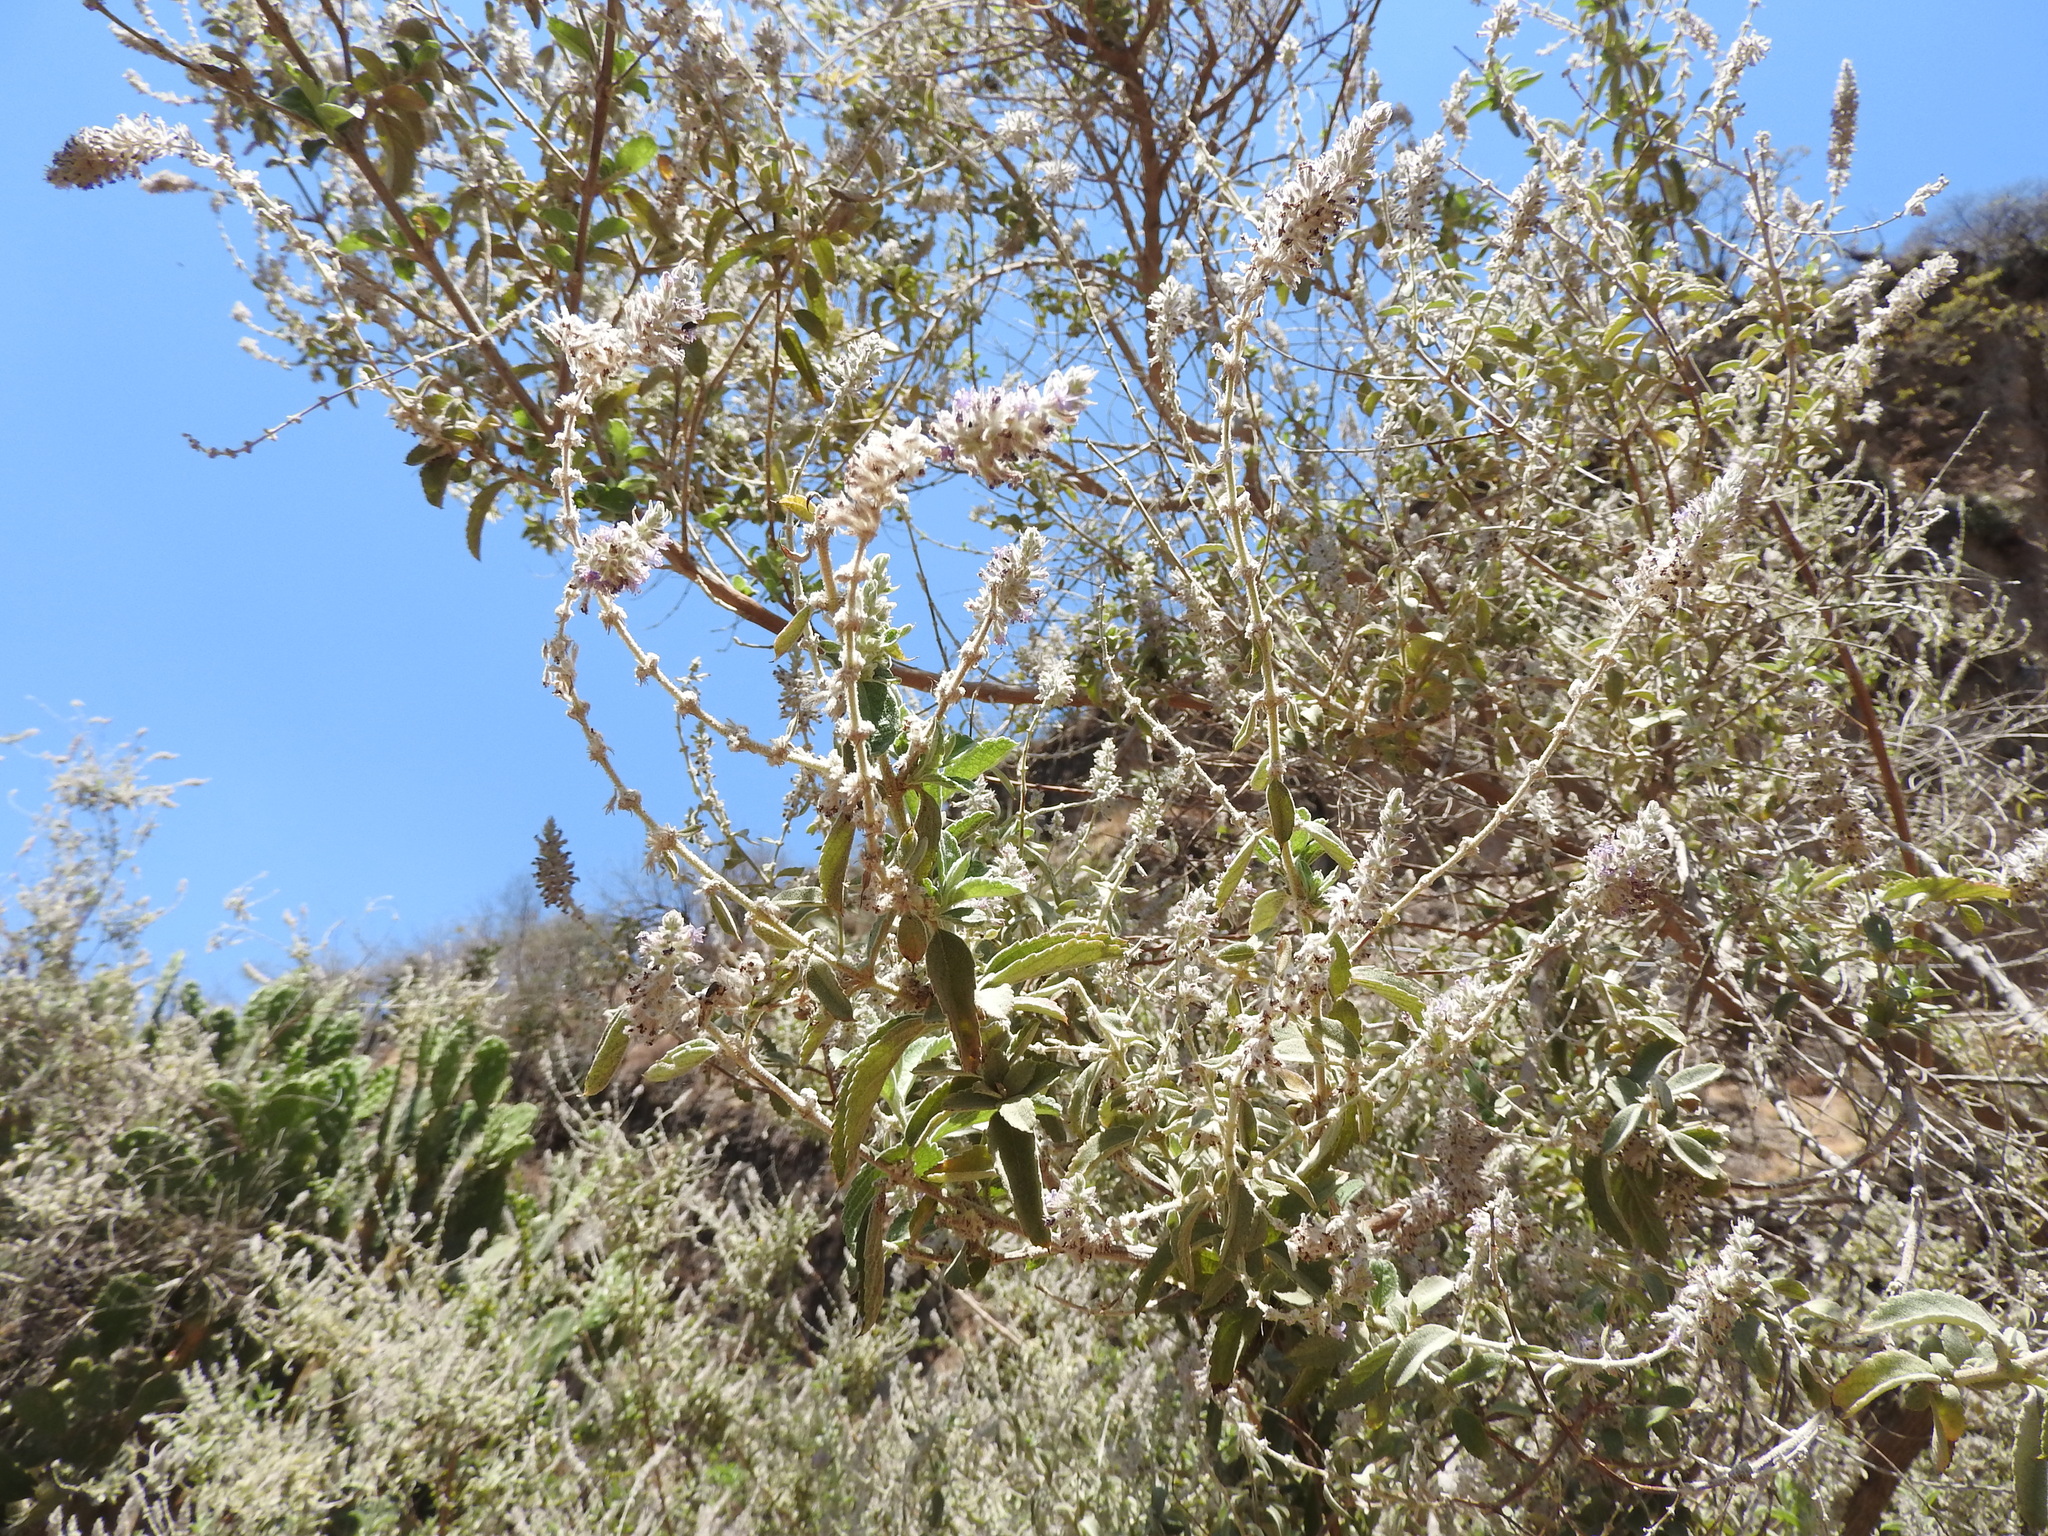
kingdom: Plantae
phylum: Tracheophyta
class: Magnoliopsida
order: Lamiales
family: Lamiaceae
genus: Condea
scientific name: Condea albida
